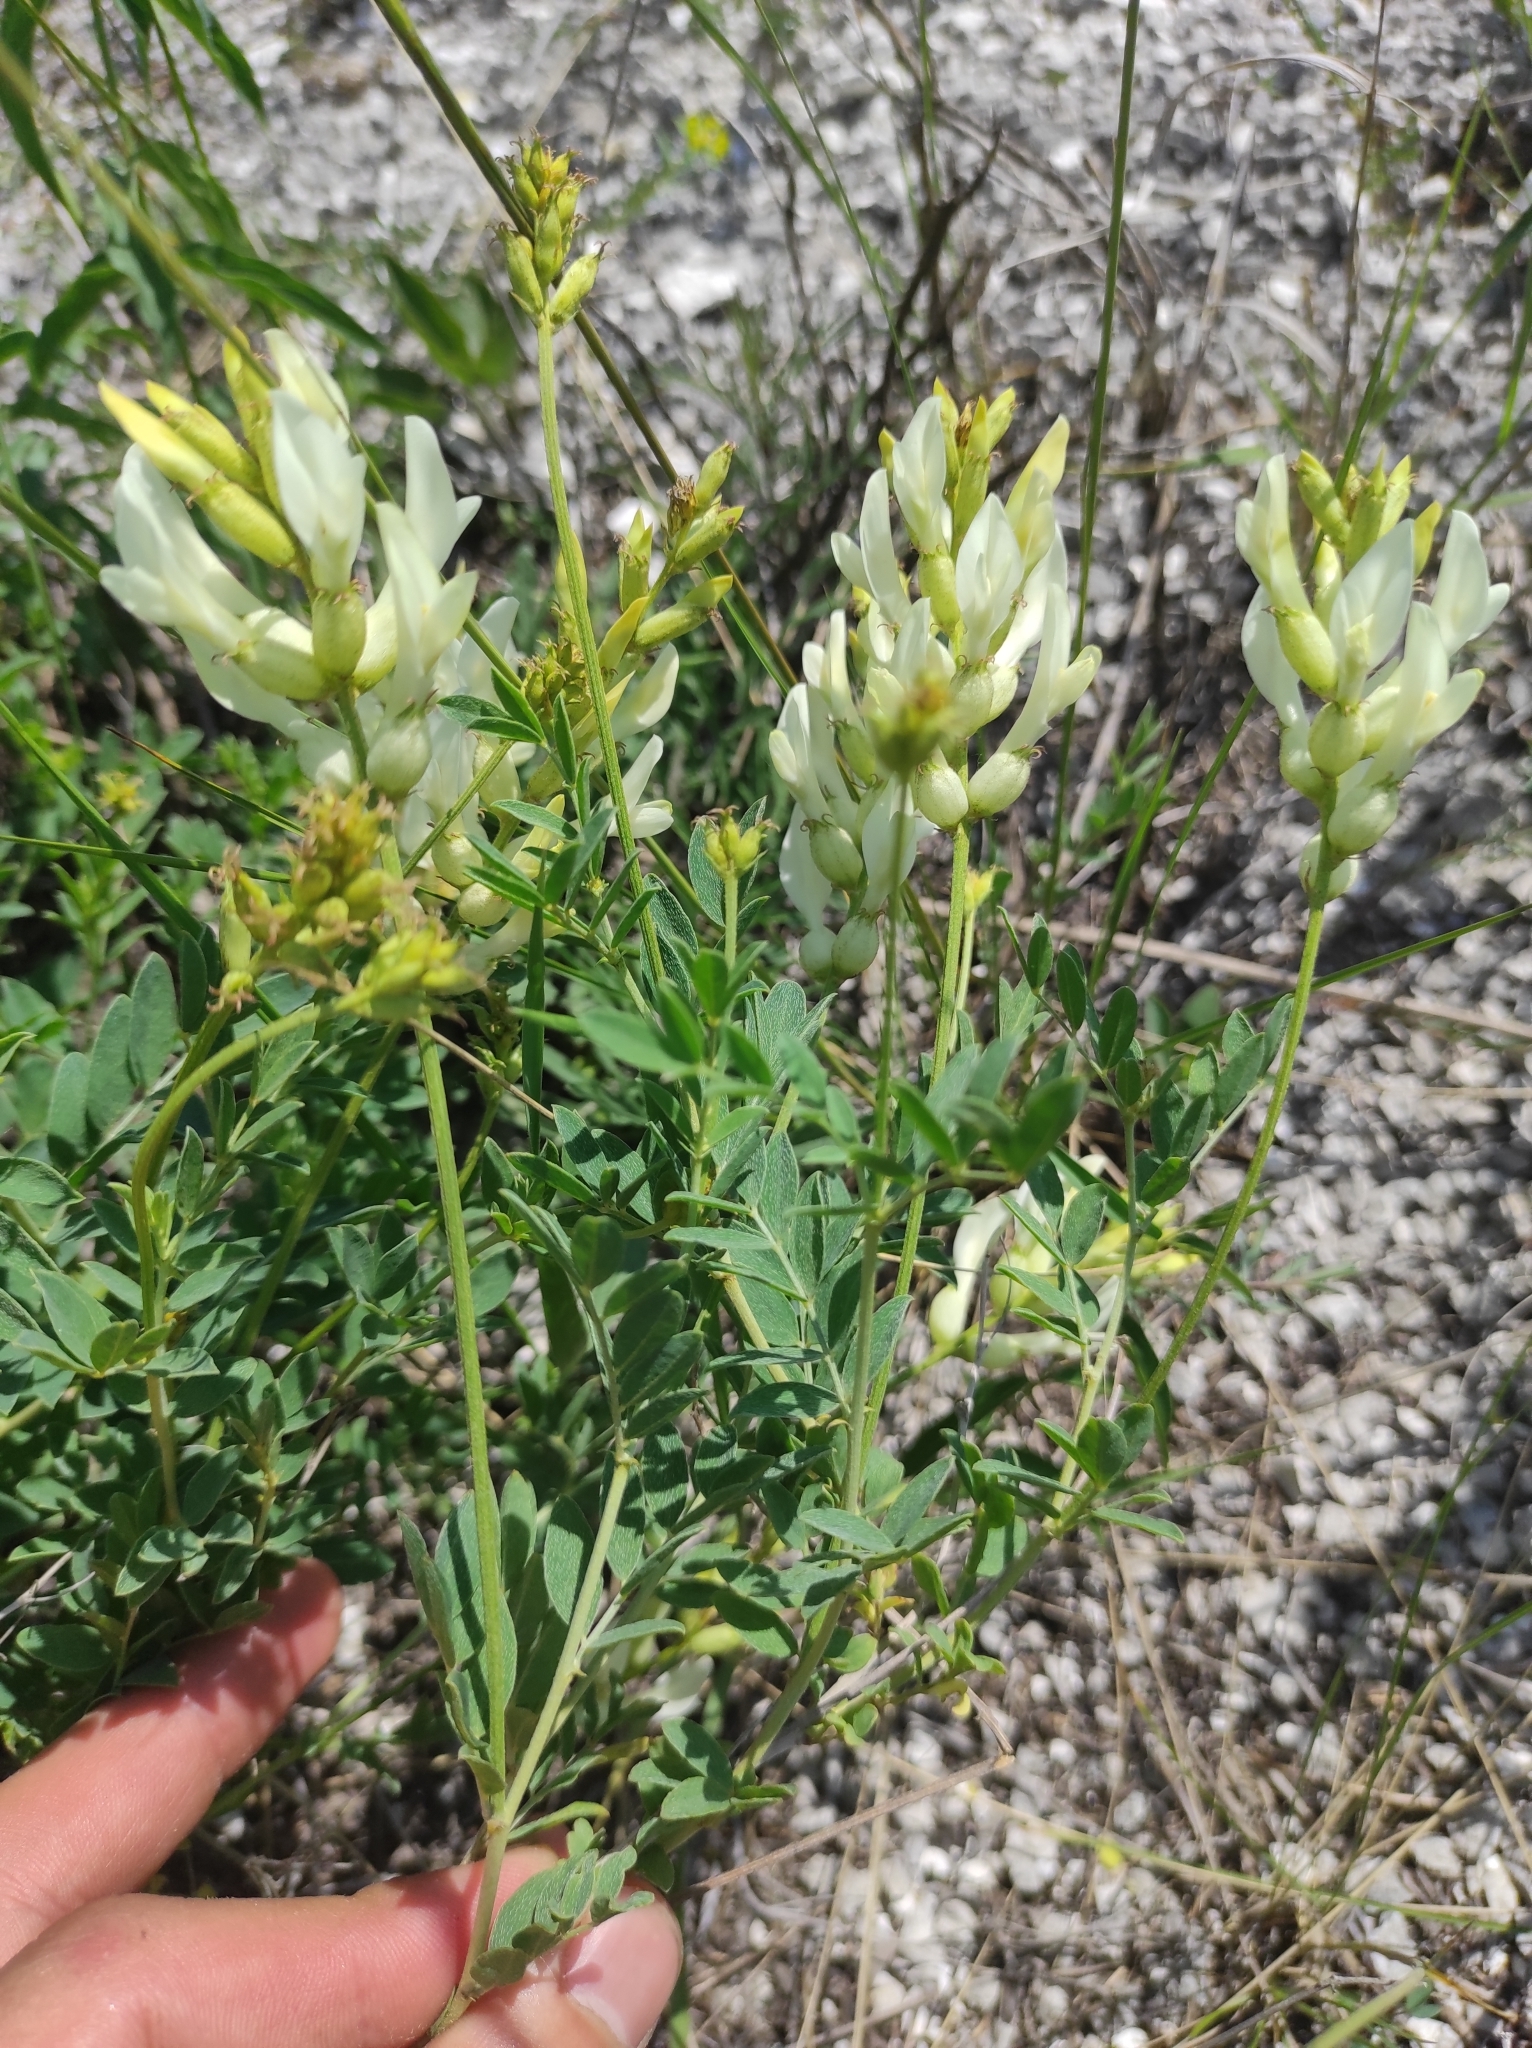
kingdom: Plantae
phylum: Tracheophyta
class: Magnoliopsida
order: Fabales
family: Fabaceae
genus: Astragalus
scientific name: Astragalus albicaulis
